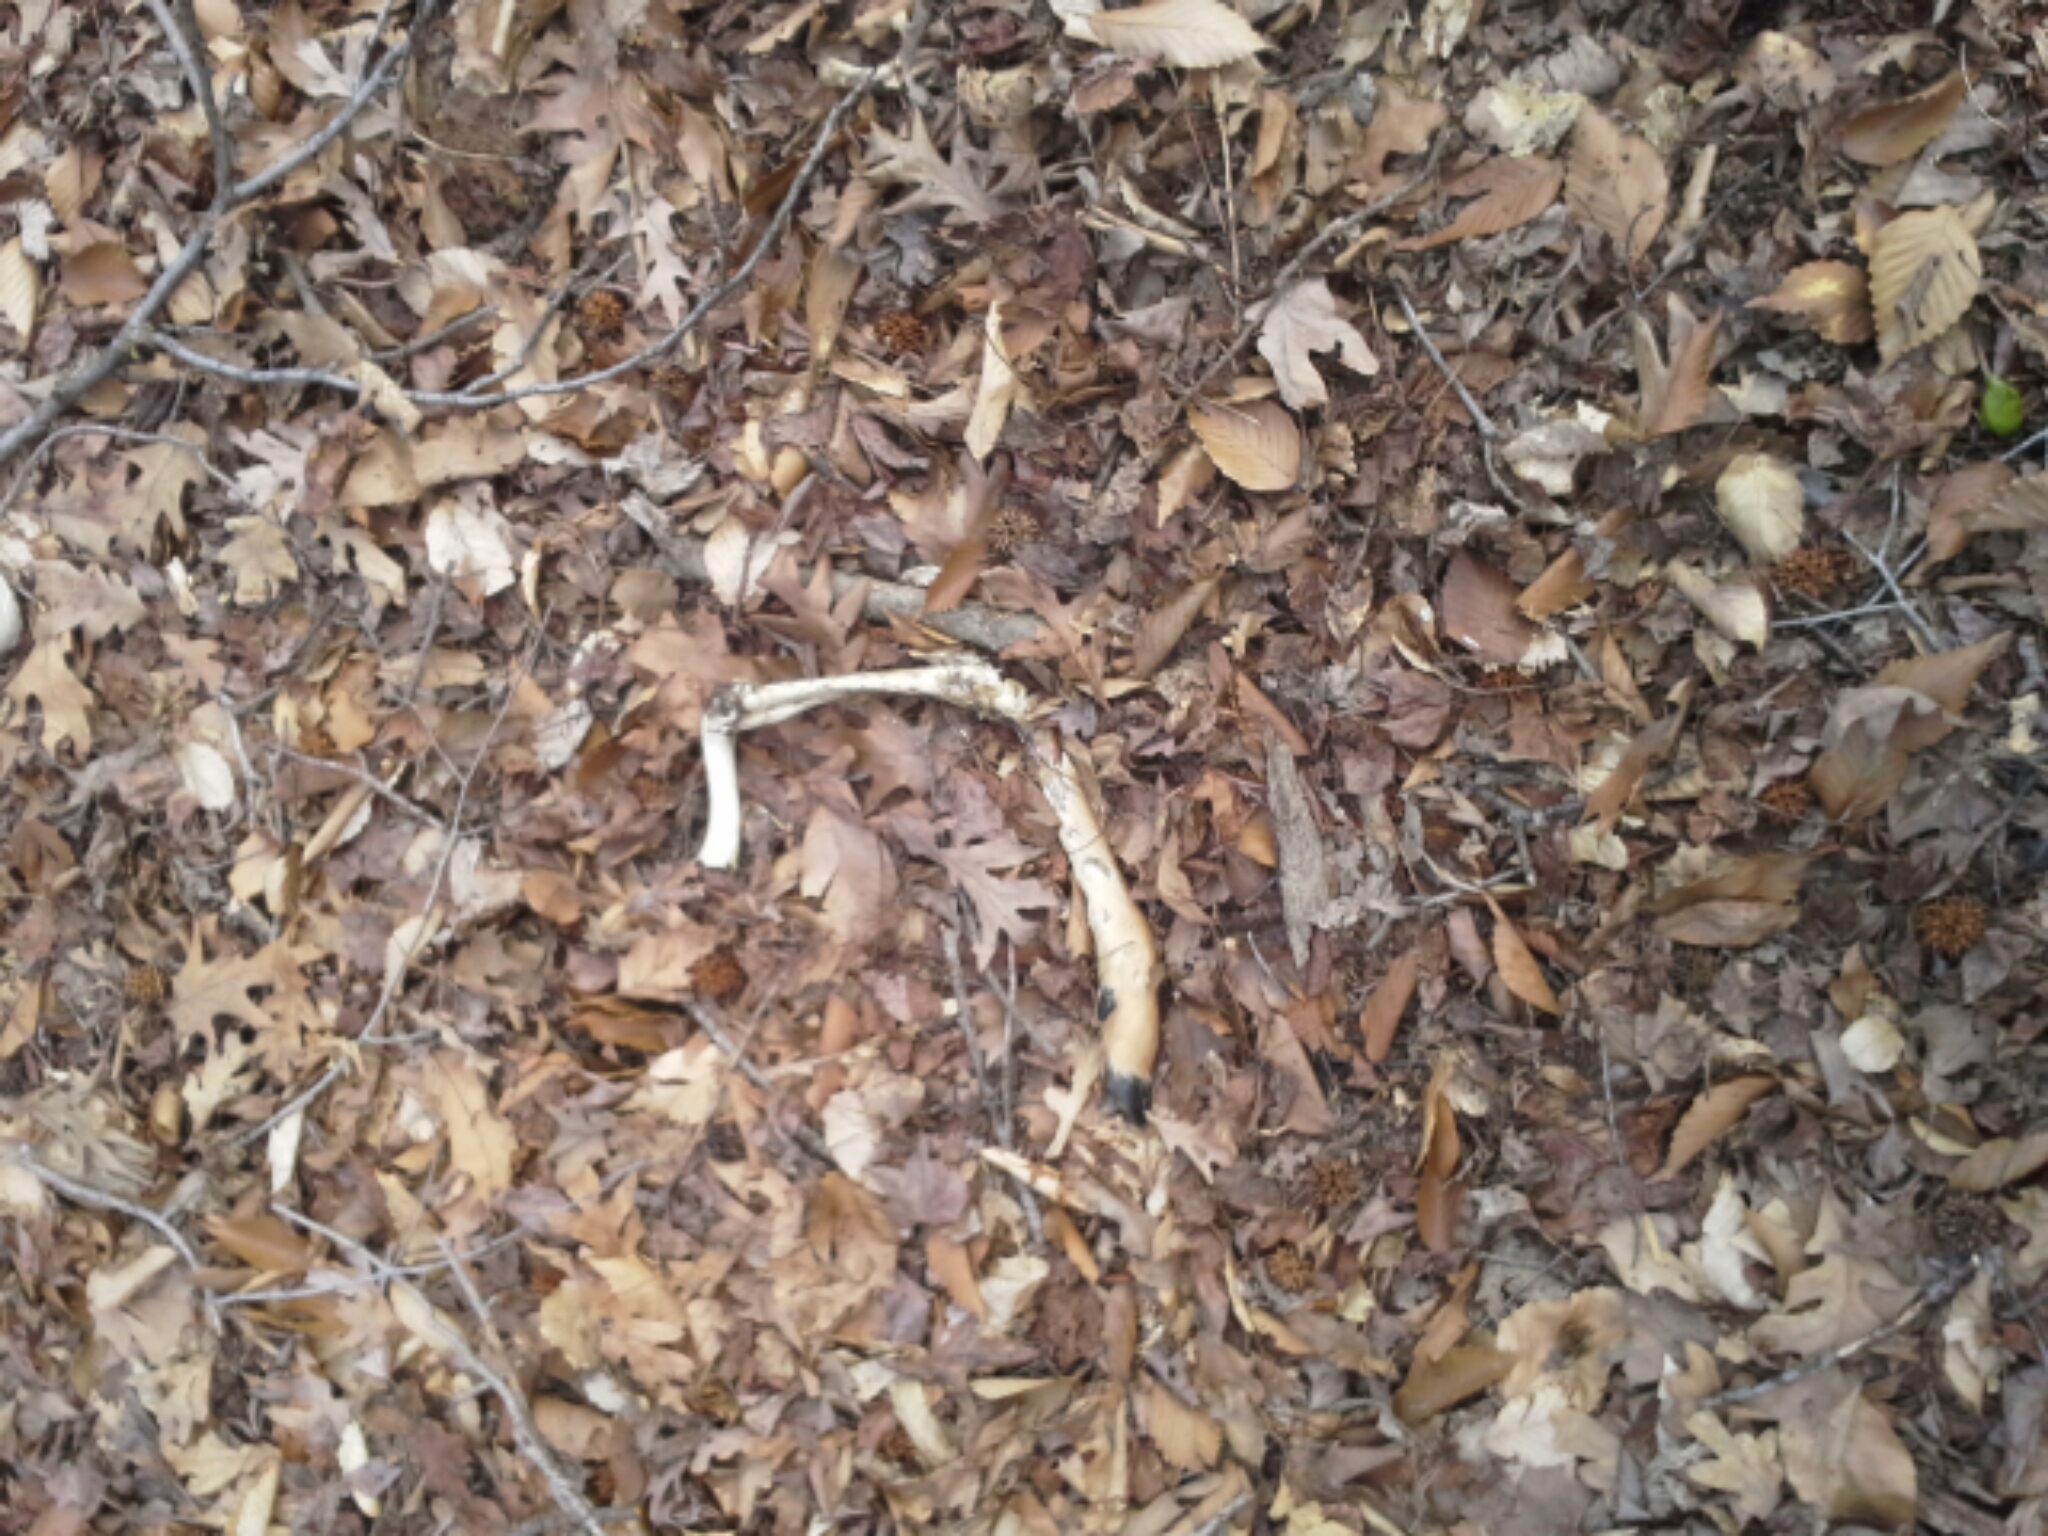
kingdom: Animalia
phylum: Chordata
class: Mammalia
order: Artiodactyla
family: Cervidae
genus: Odocoileus
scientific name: Odocoileus virginianus
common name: White-tailed deer
